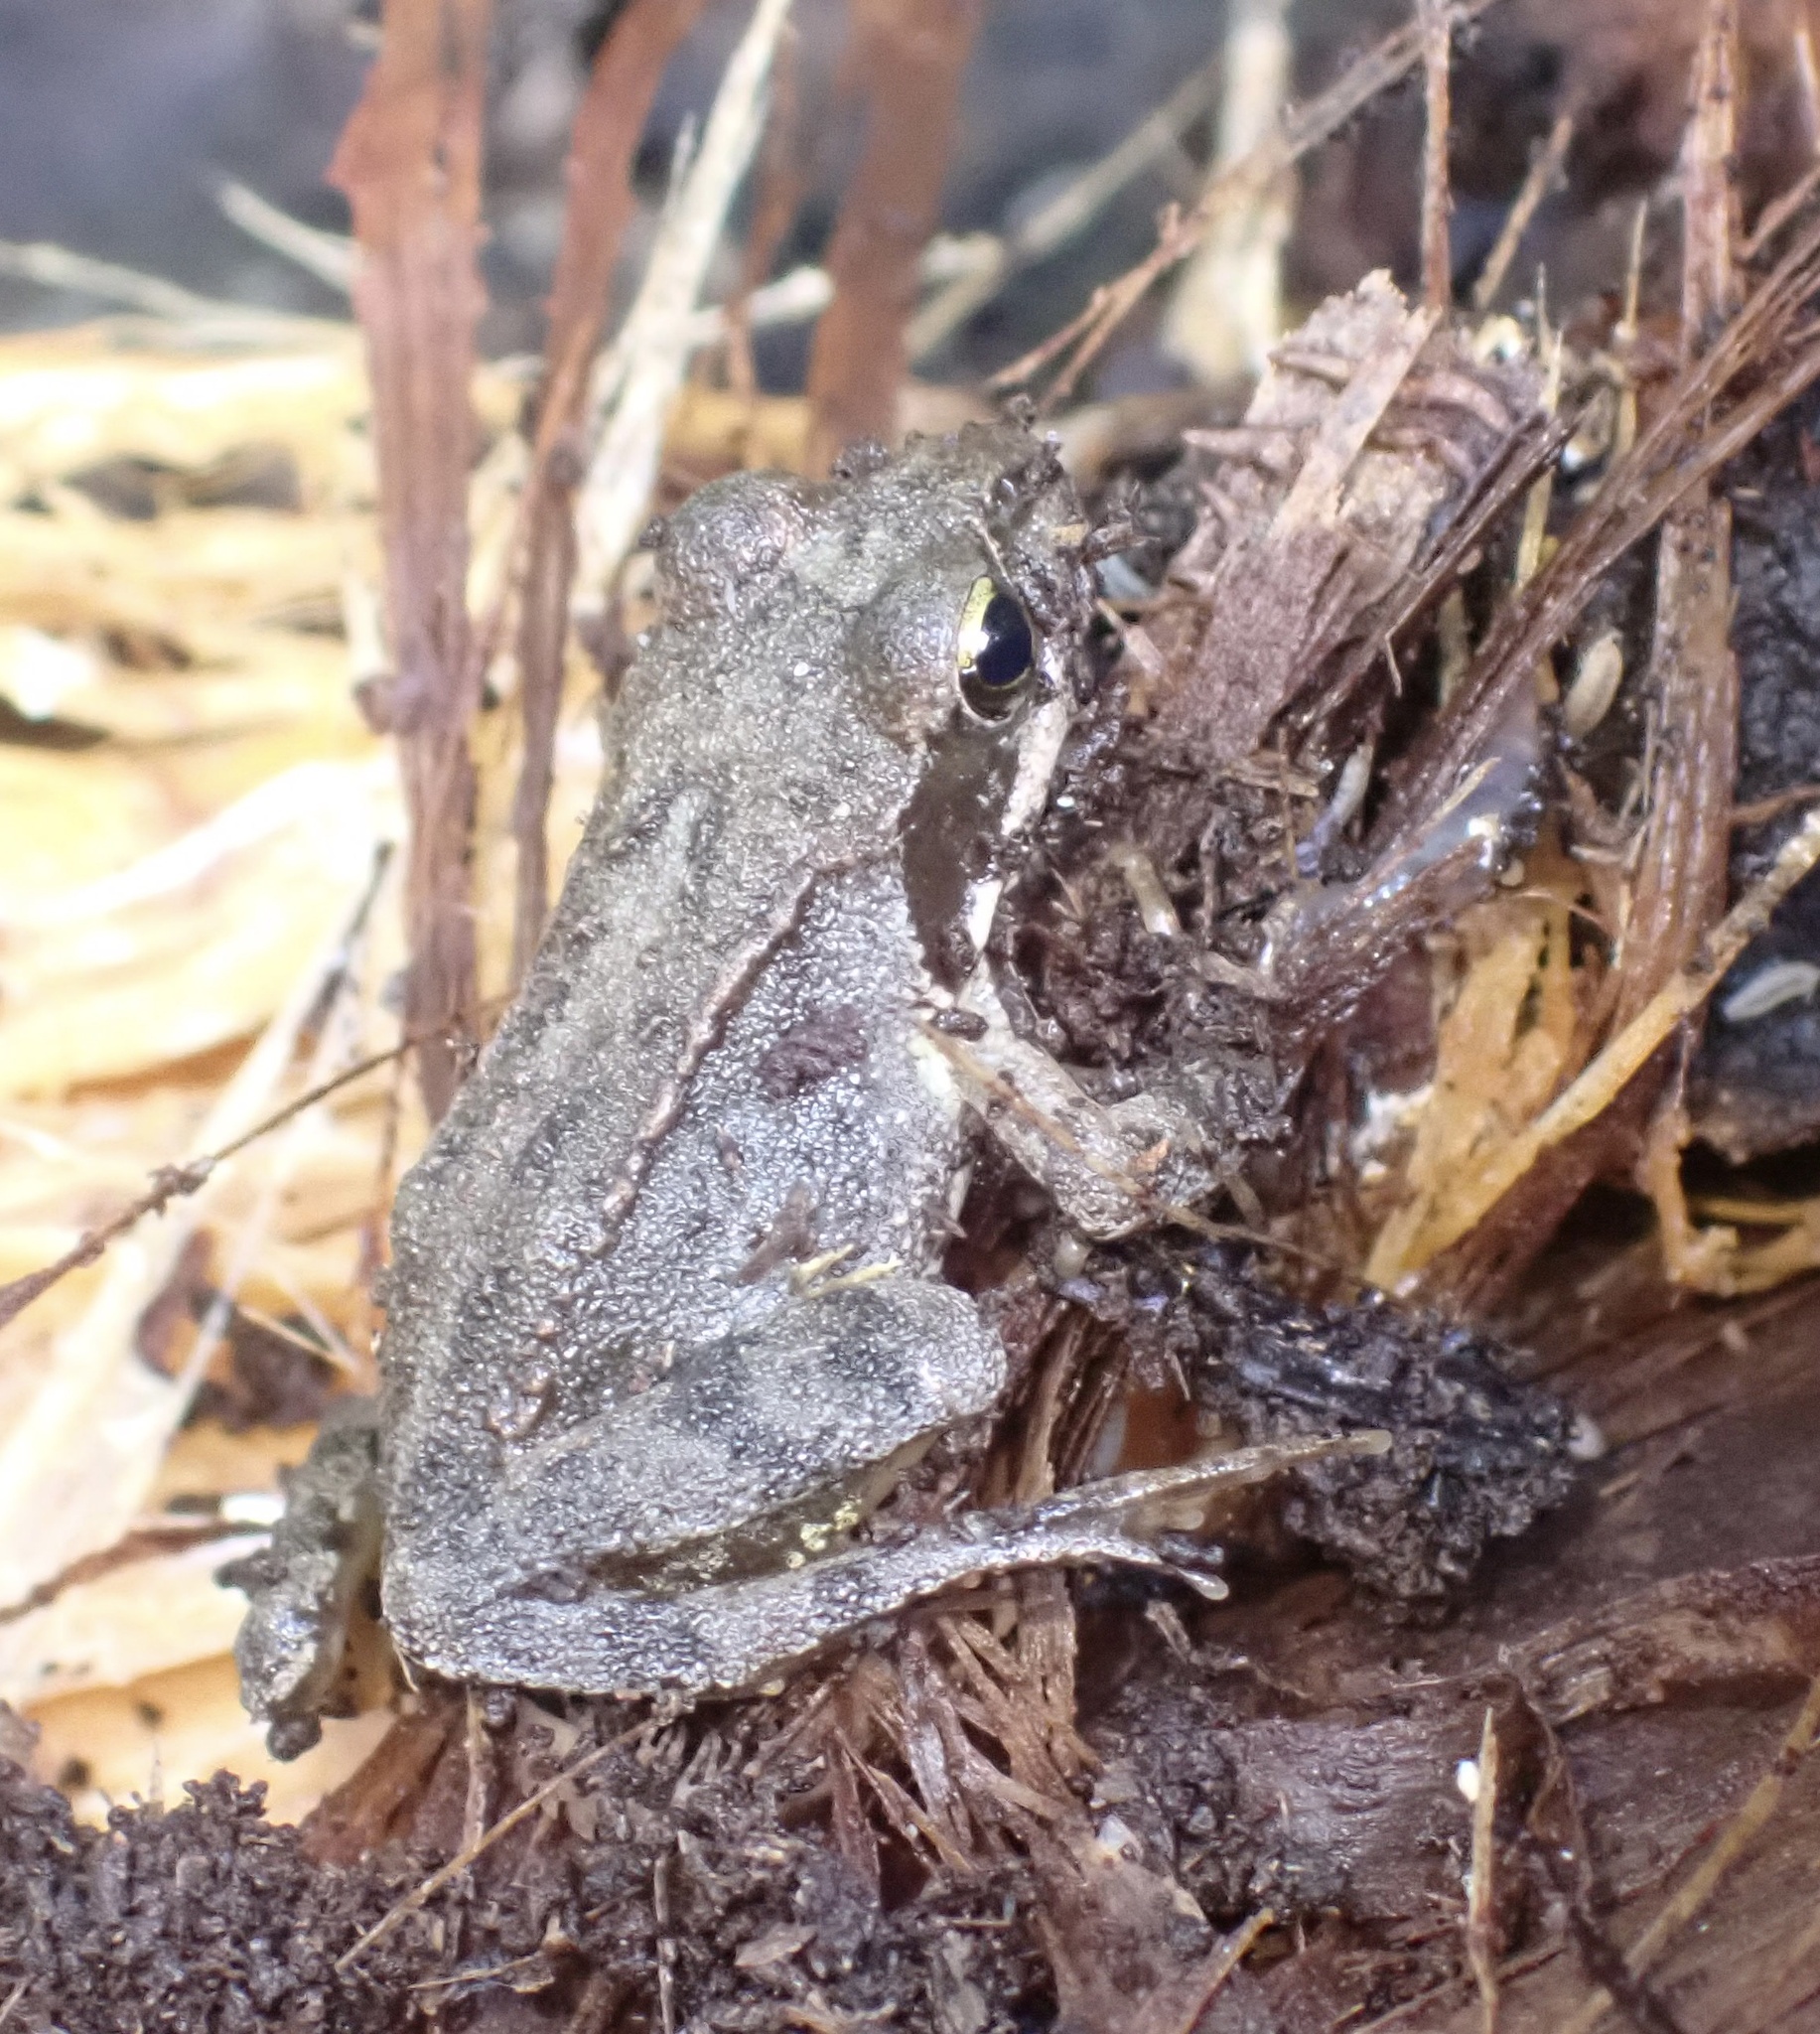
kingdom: Animalia
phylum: Chordata
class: Amphibia
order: Anura
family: Ranidae
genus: Rana
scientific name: Rana temporaria
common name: Common frog
